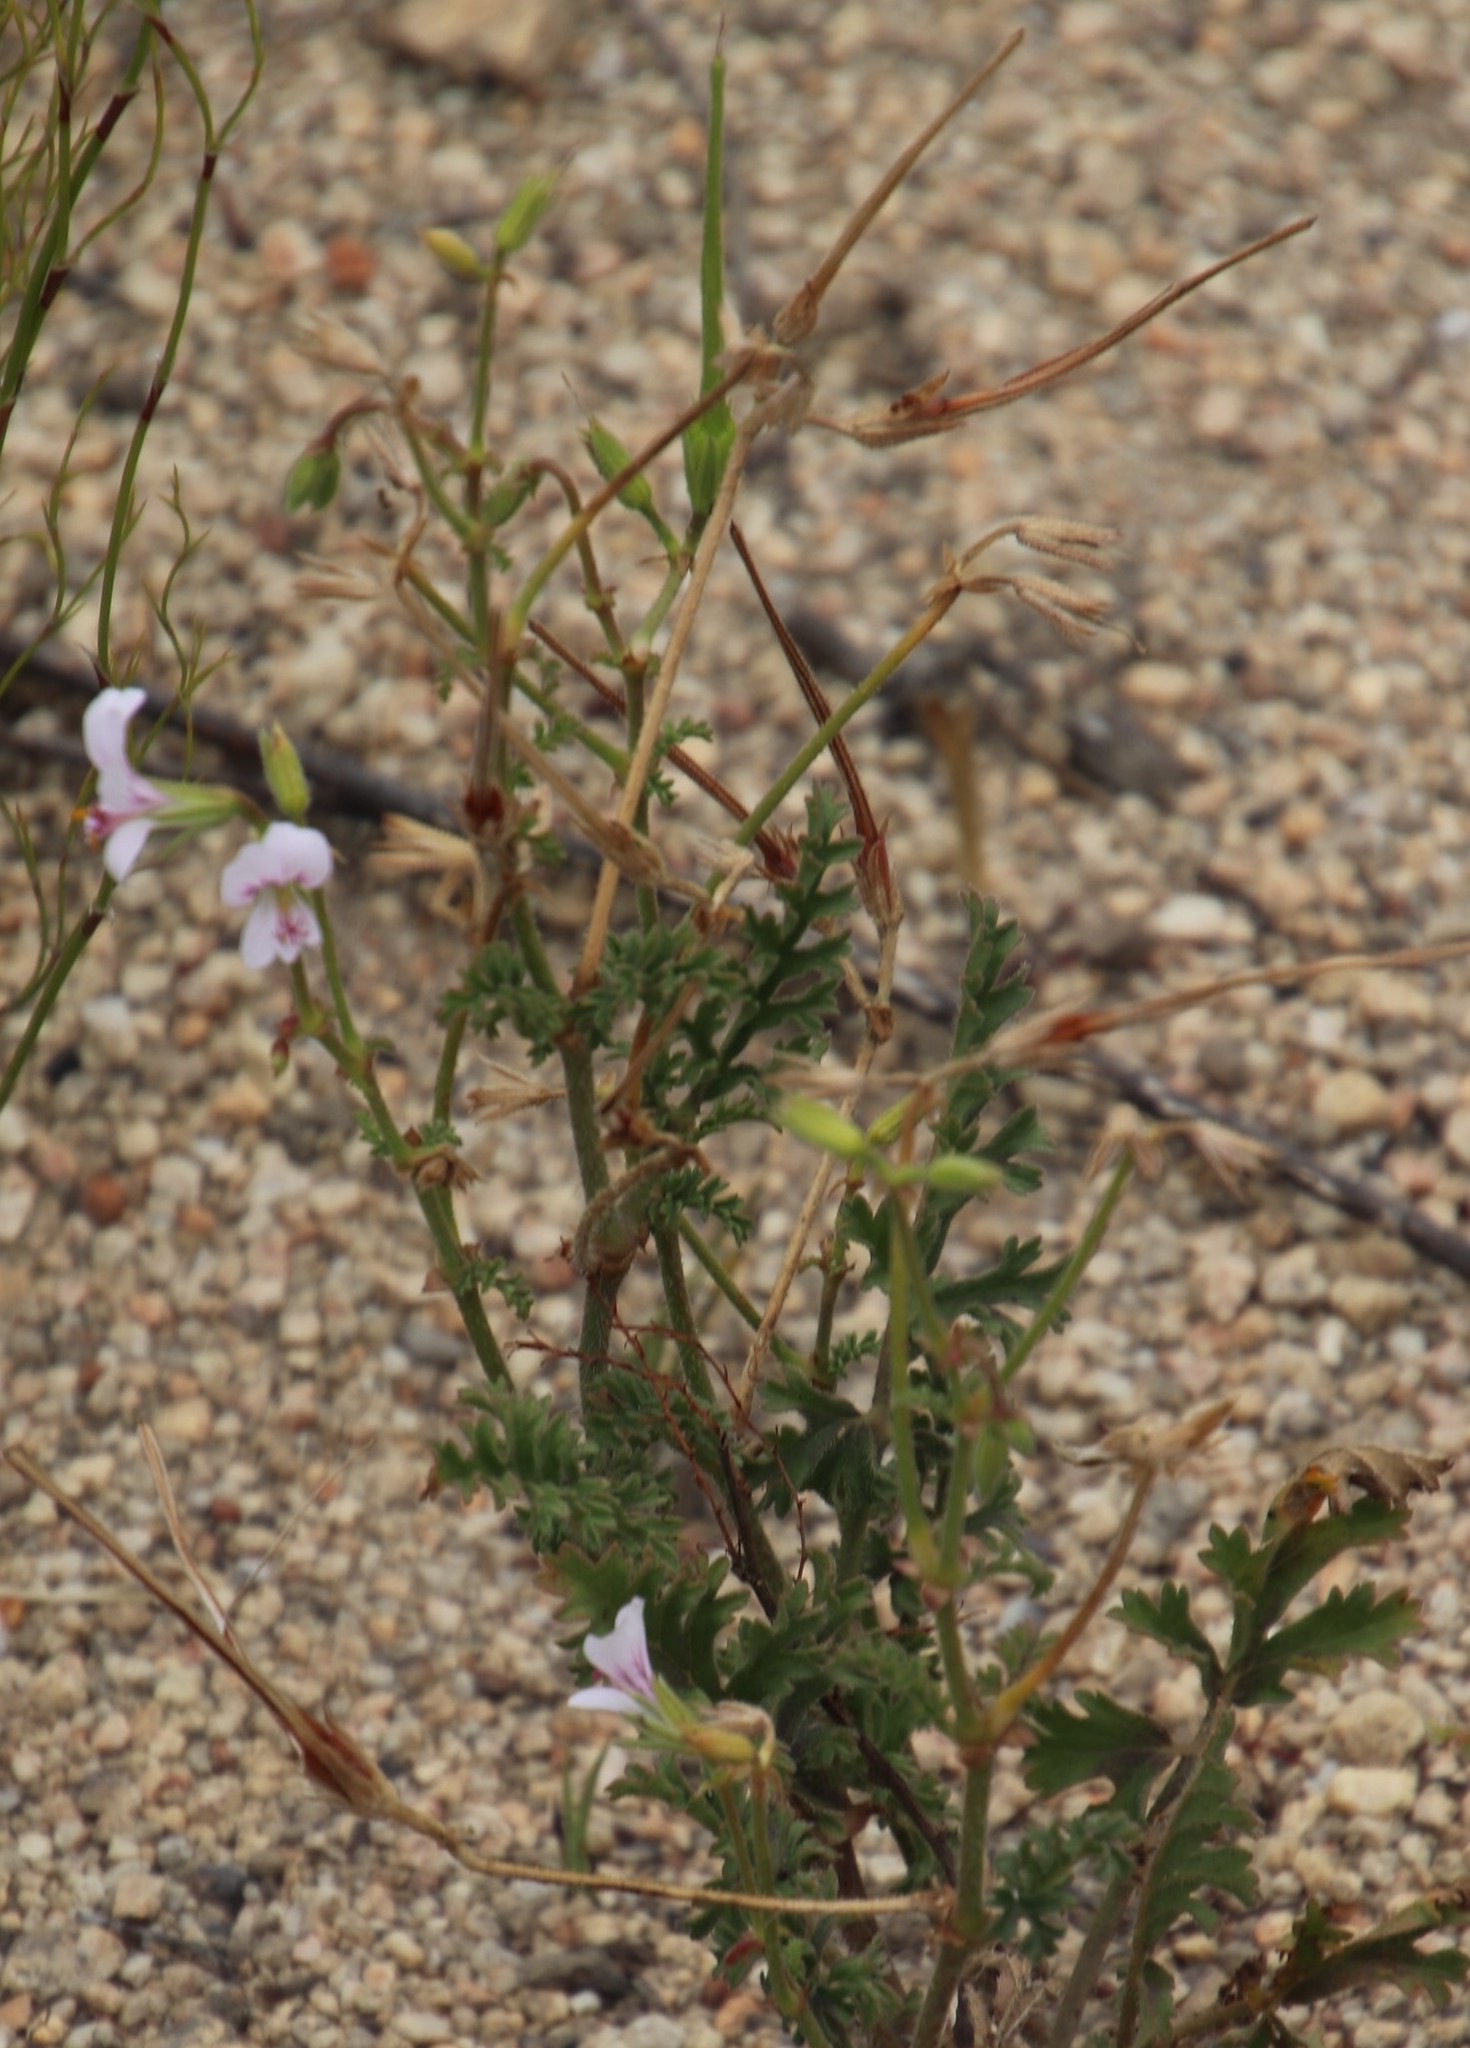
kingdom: Plantae
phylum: Tracheophyta
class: Magnoliopsida
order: Geraniales
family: Geraniaceae
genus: Pelargonium
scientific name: Pelargonium myrrhifolium
